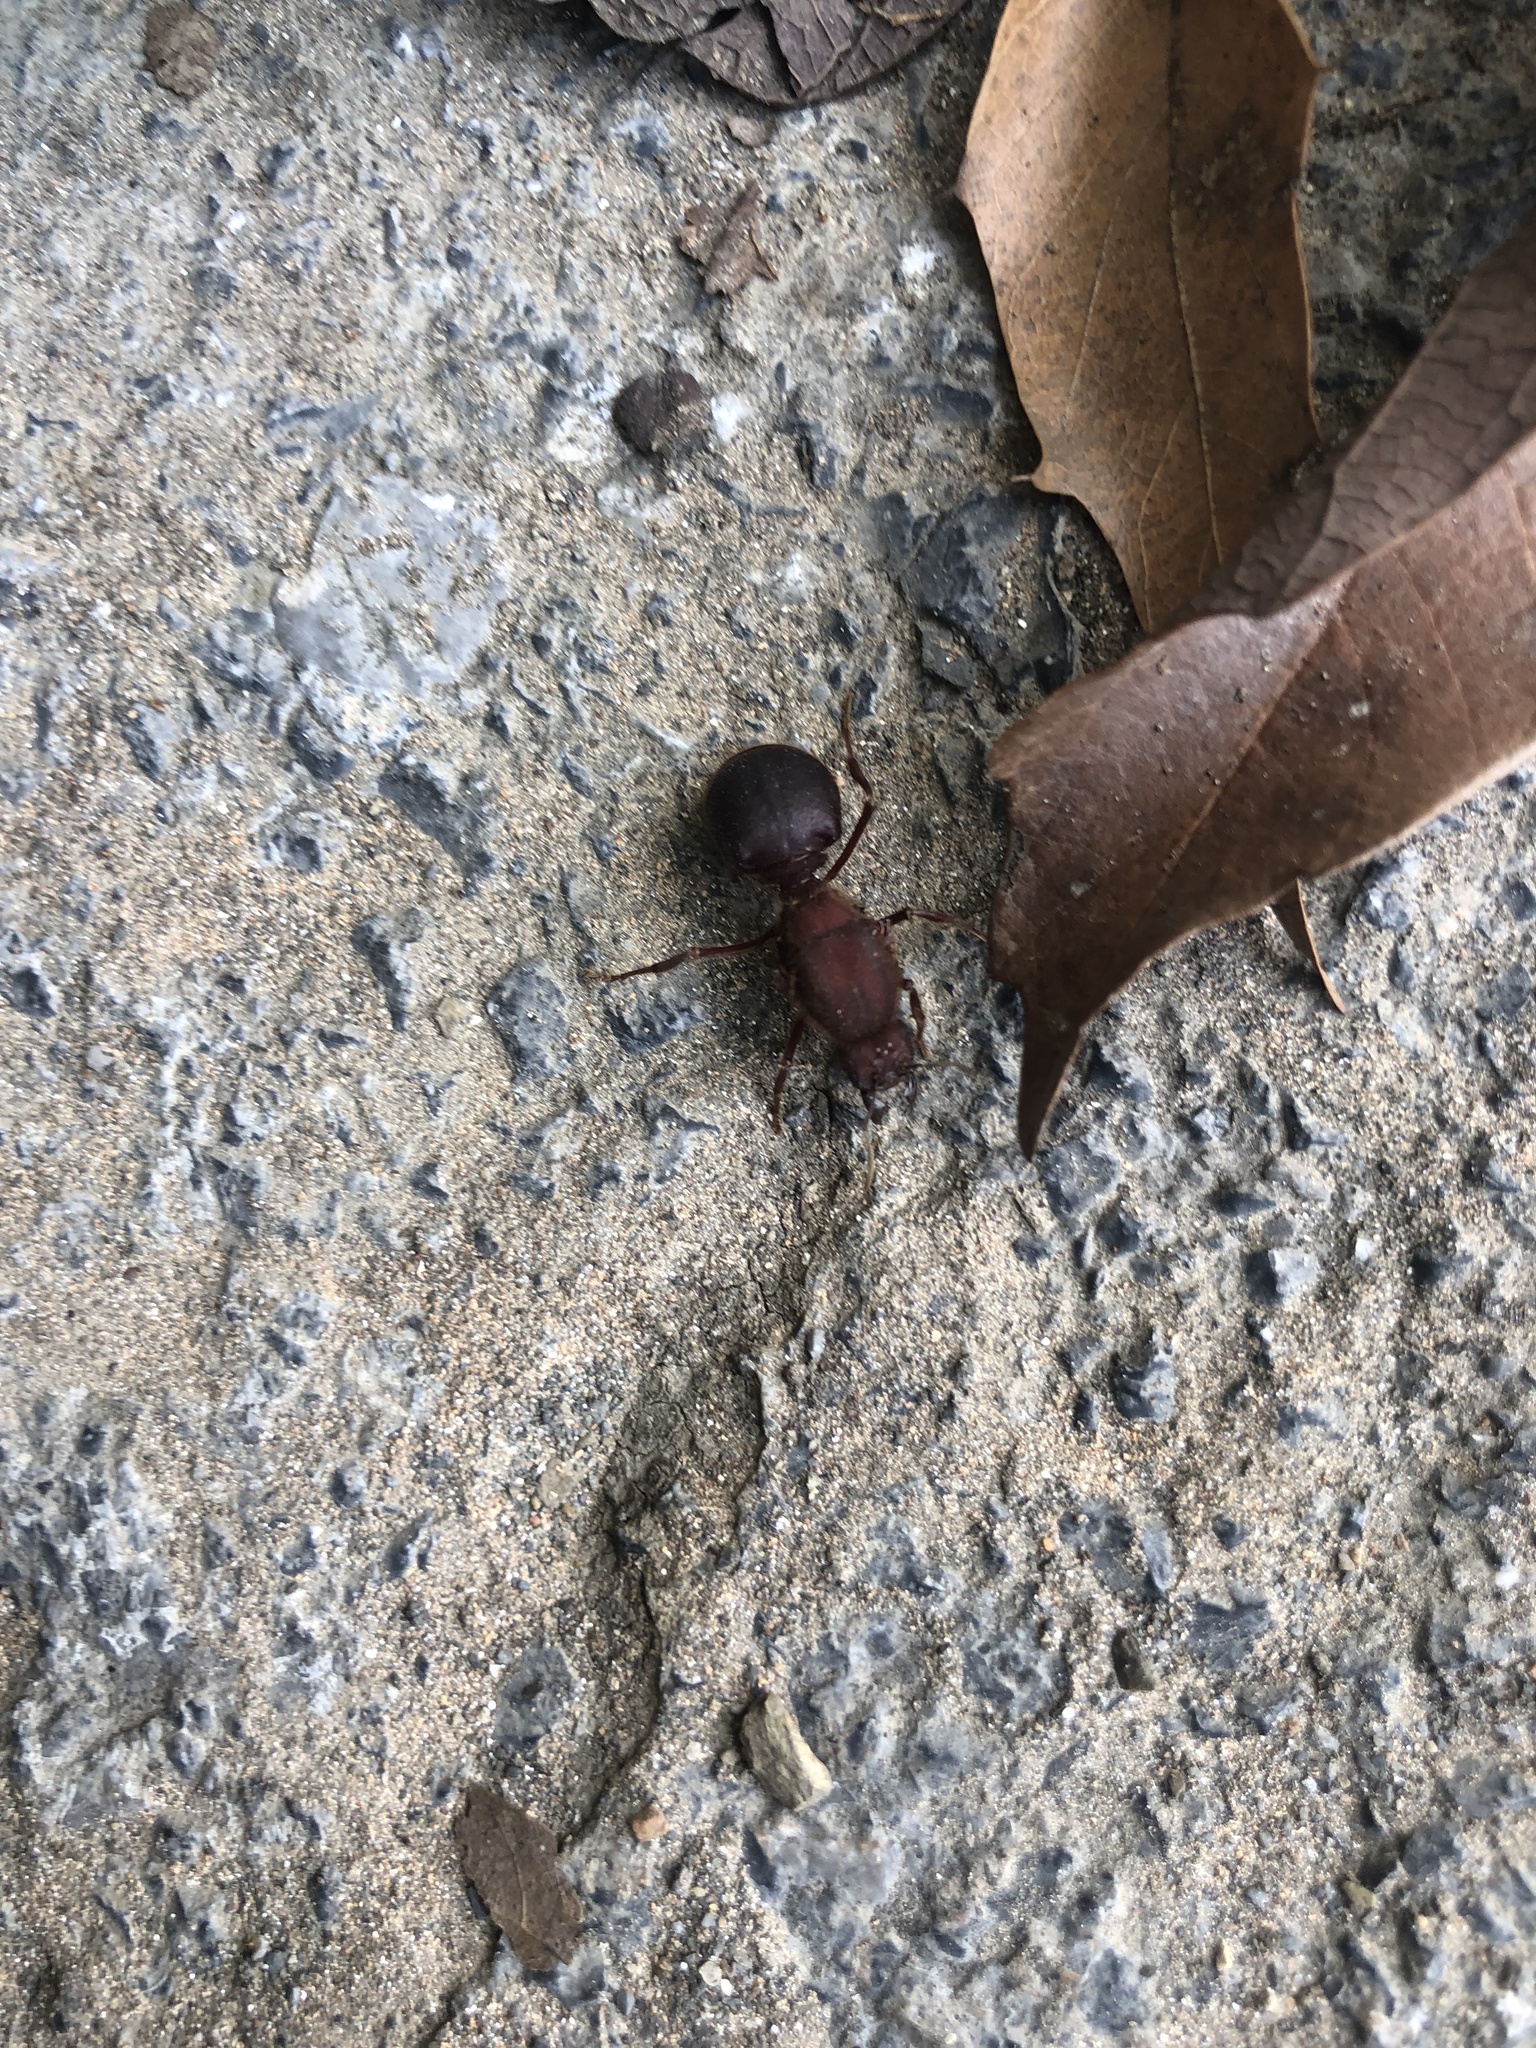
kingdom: Animalia
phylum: Arthropoda
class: Insecta
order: Hymenoptera
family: Formicidae
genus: Atta
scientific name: Atta mexicana
